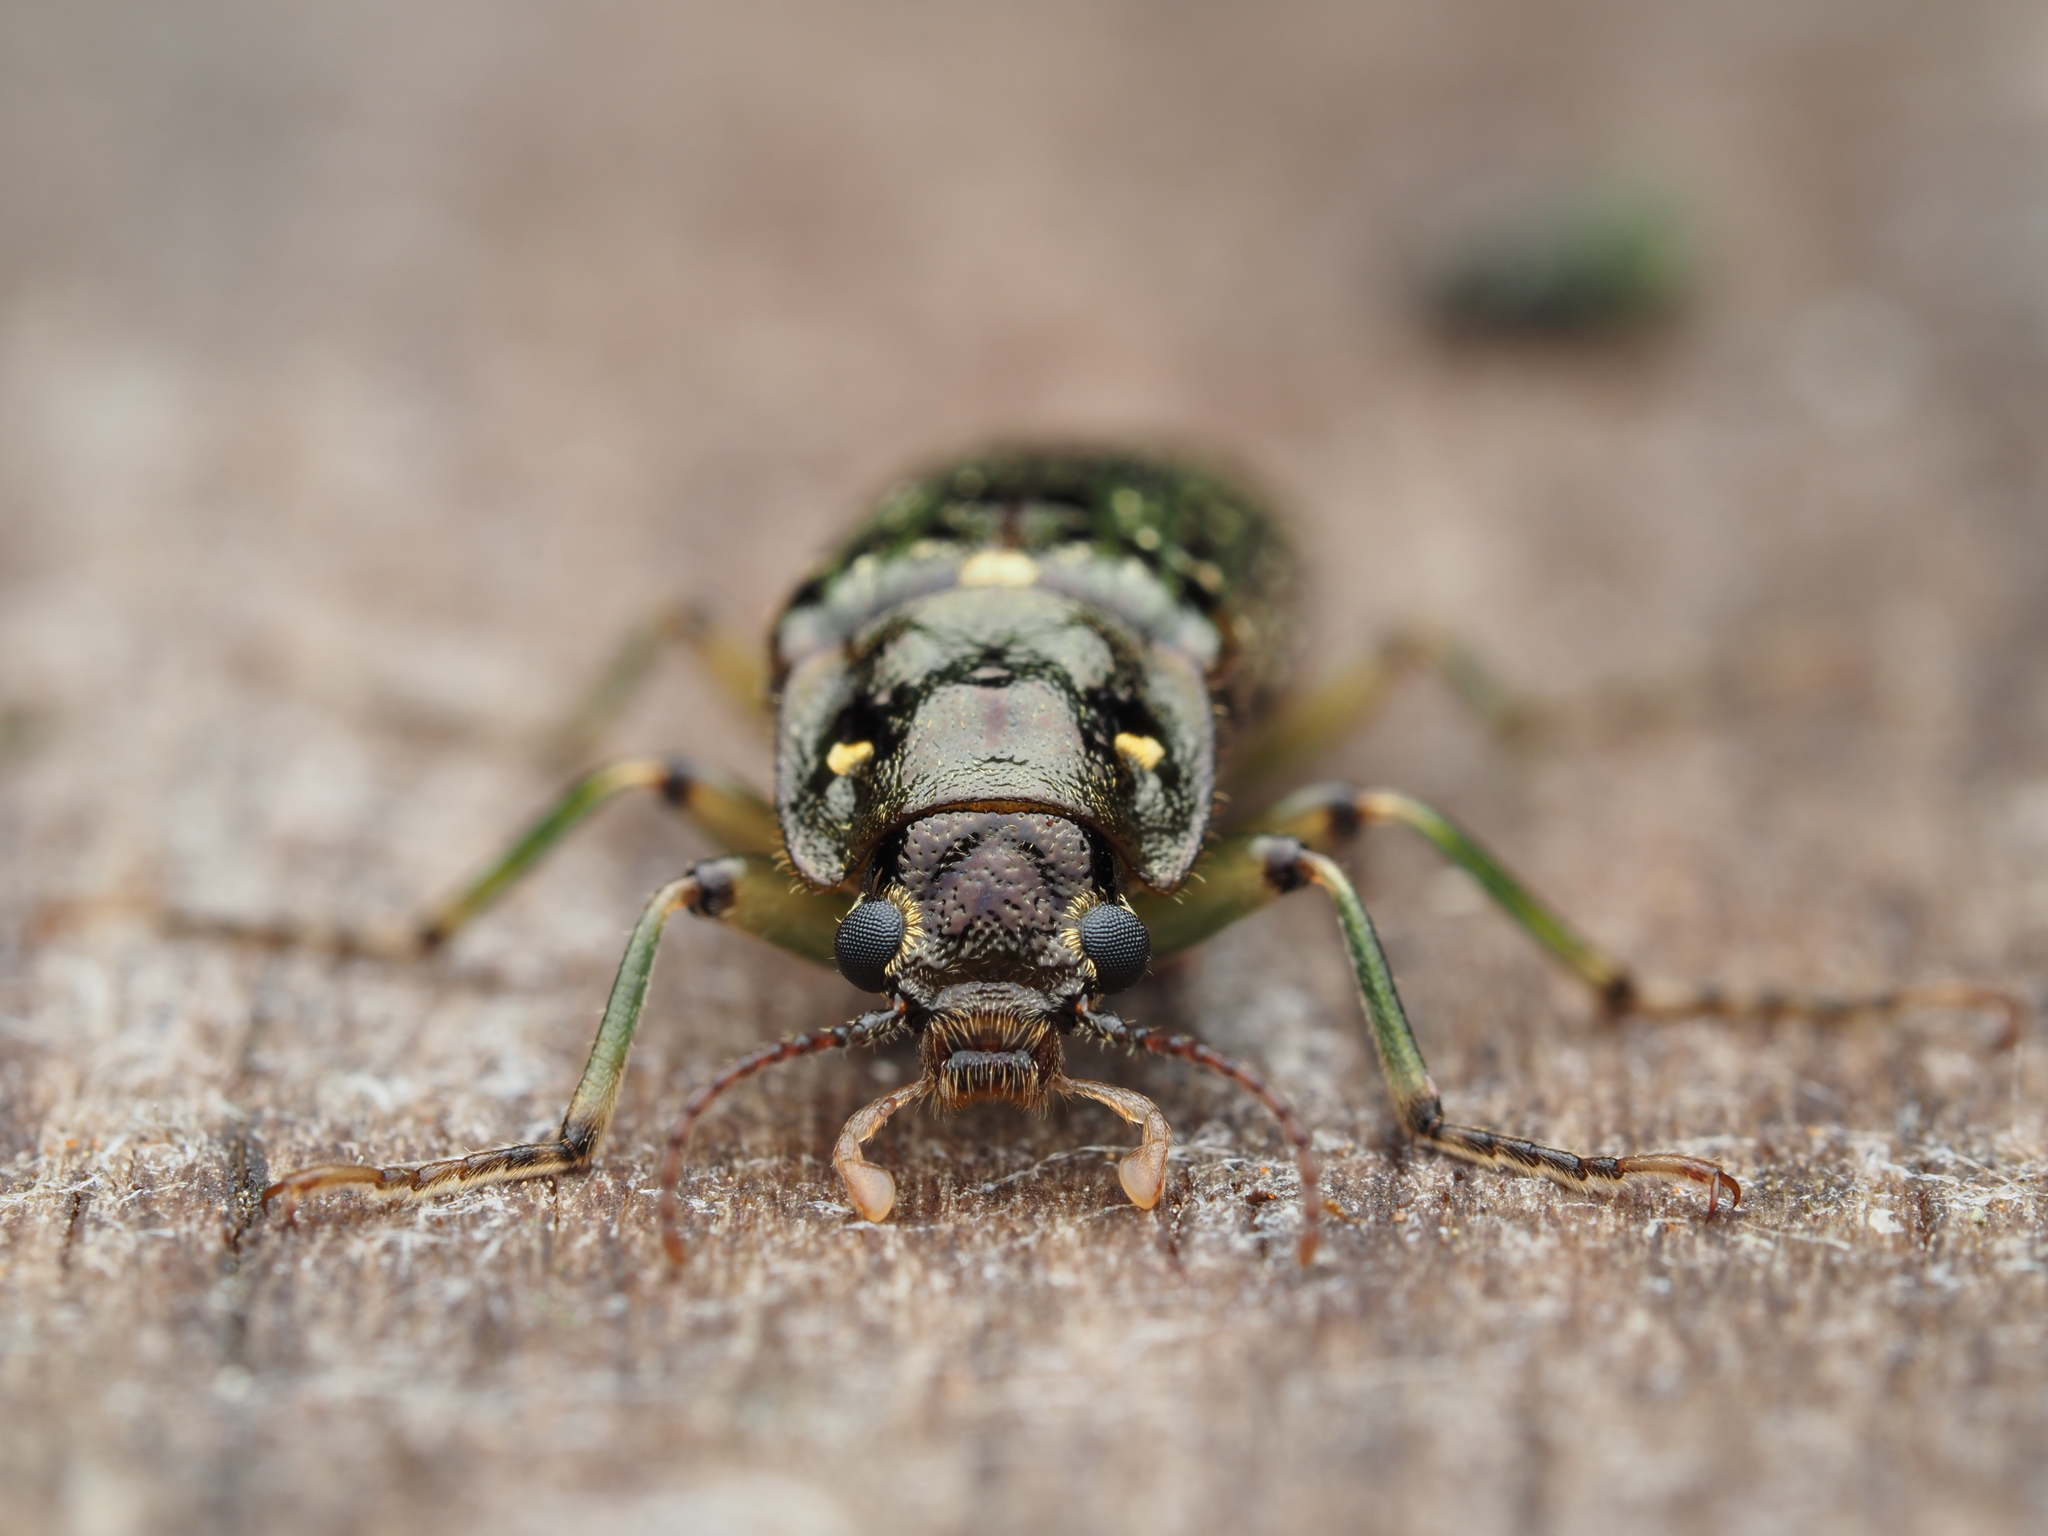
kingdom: Animalia
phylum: Arthropoda
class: Insecta
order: Coleoptera
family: Chalcodryidae
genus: Chalcodrya
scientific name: Chalcodrya
